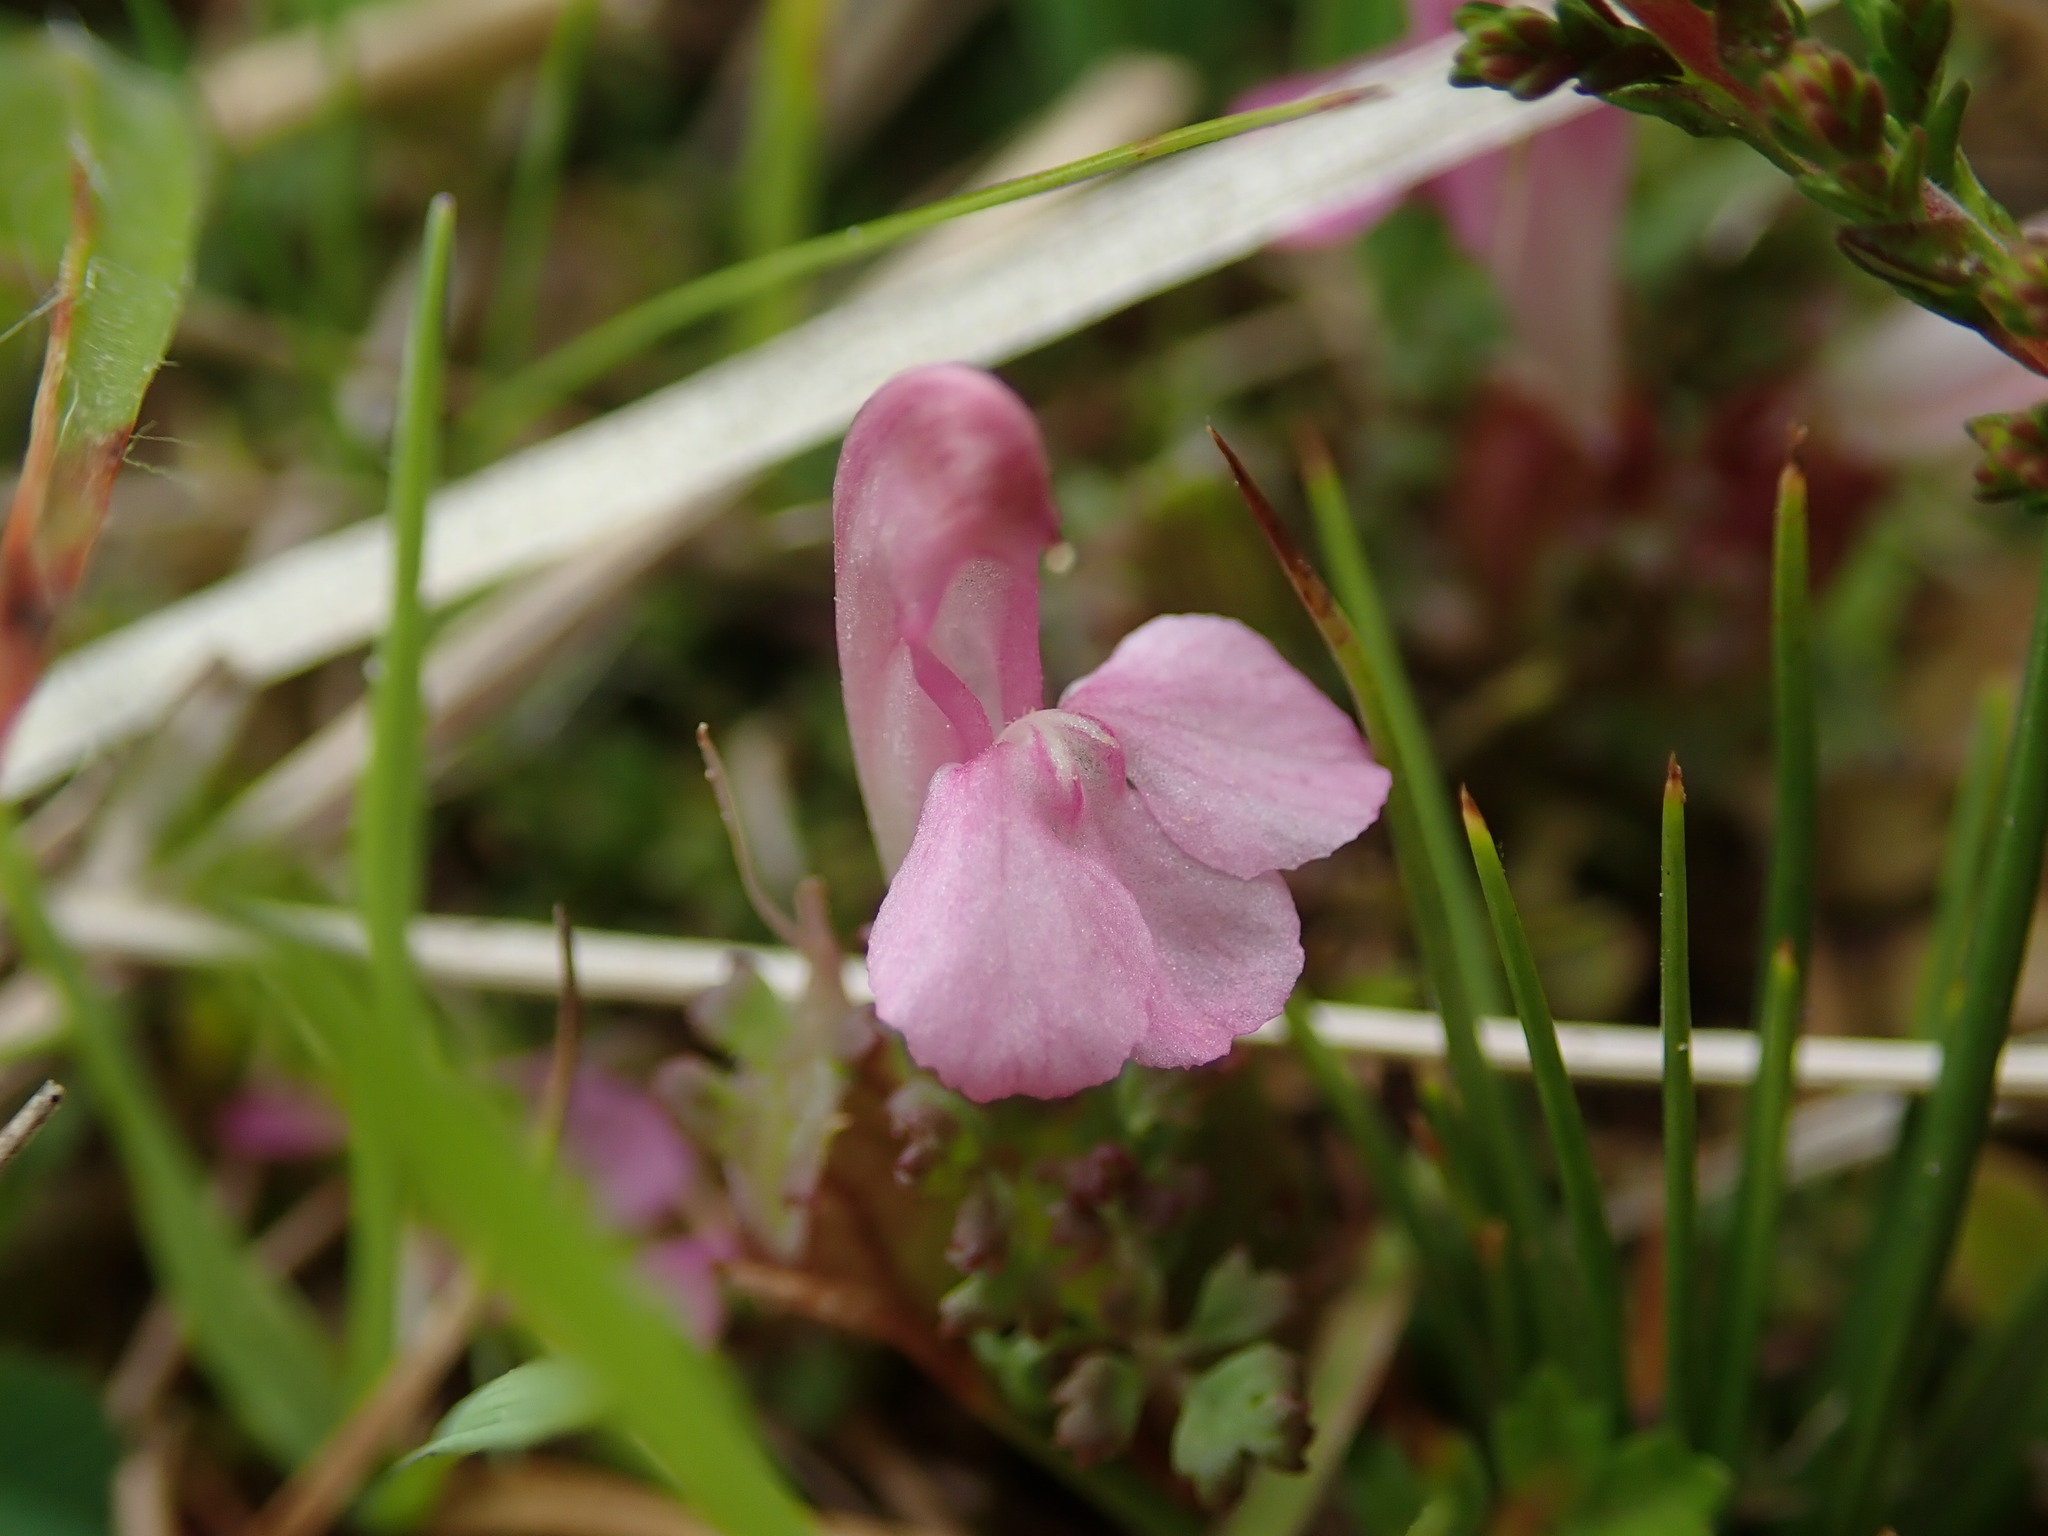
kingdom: Plantae
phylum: Tracheophyta
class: Magnoliopsida
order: Lamiales
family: Orobanchaceae
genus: Pedicularis
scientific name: Pedicularis sylvatica
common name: Lousewort
